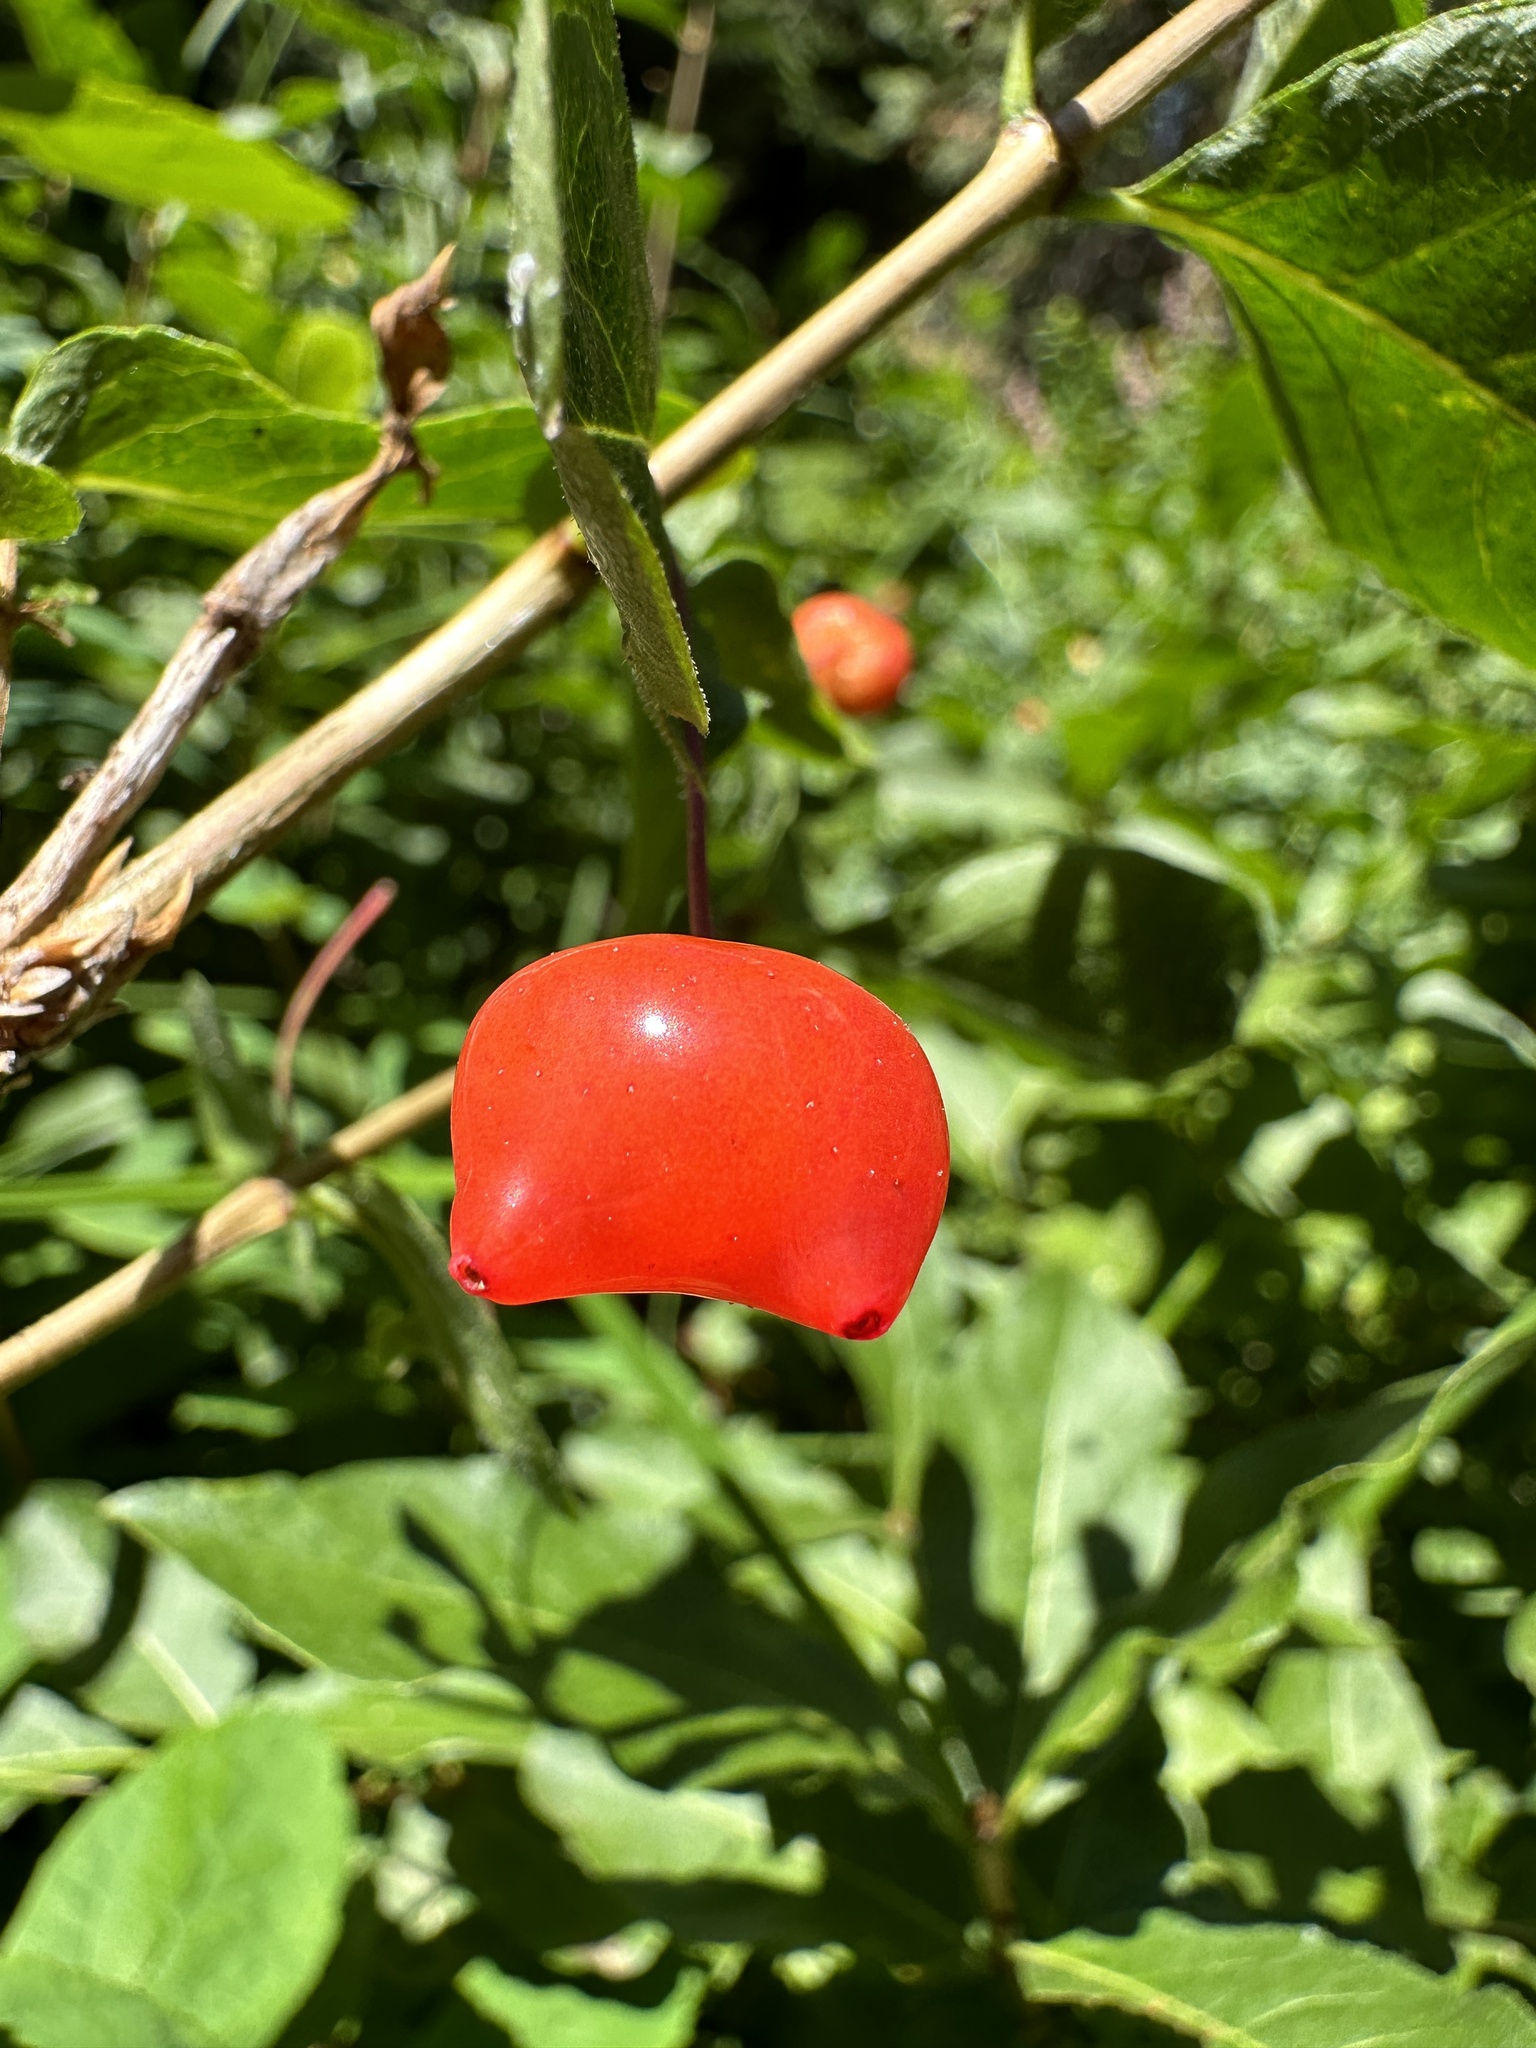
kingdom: Plantae
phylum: Tracheophyta
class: Magnoliopsida
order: Dipsacales
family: Caprifoliaceae
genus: Lonicera
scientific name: Lonicera conjugialis
